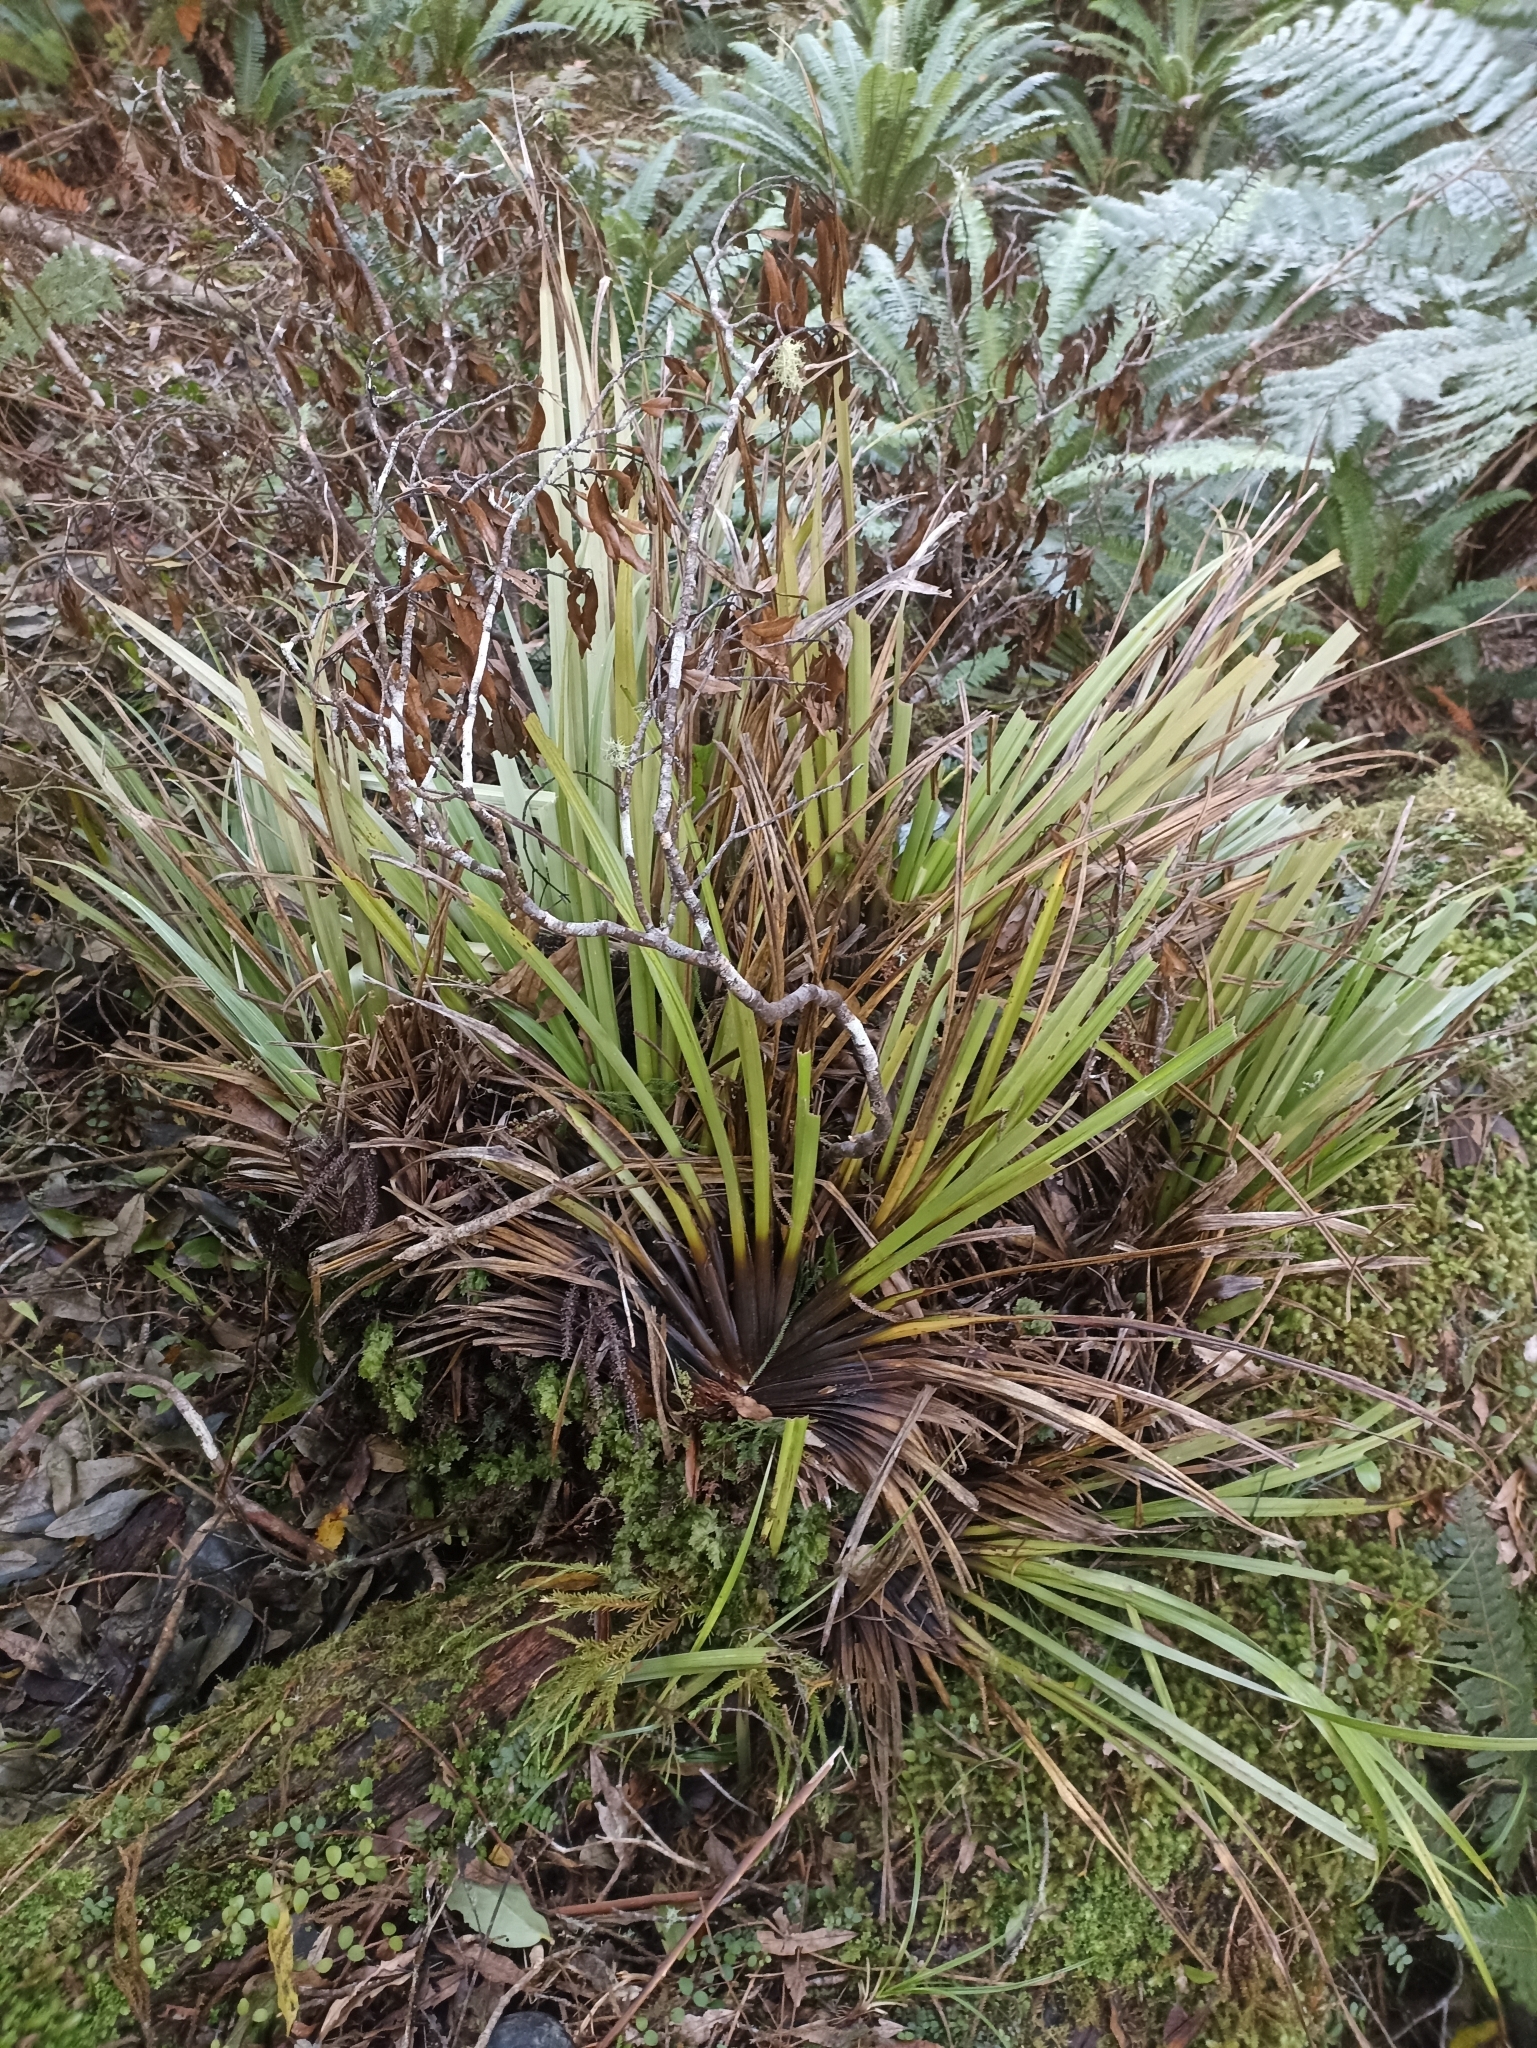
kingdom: Plantae
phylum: Tracheophyta
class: Liliopsida
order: Asparagales
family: Asteliaceae
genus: Astelia
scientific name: Astelia microsperma
